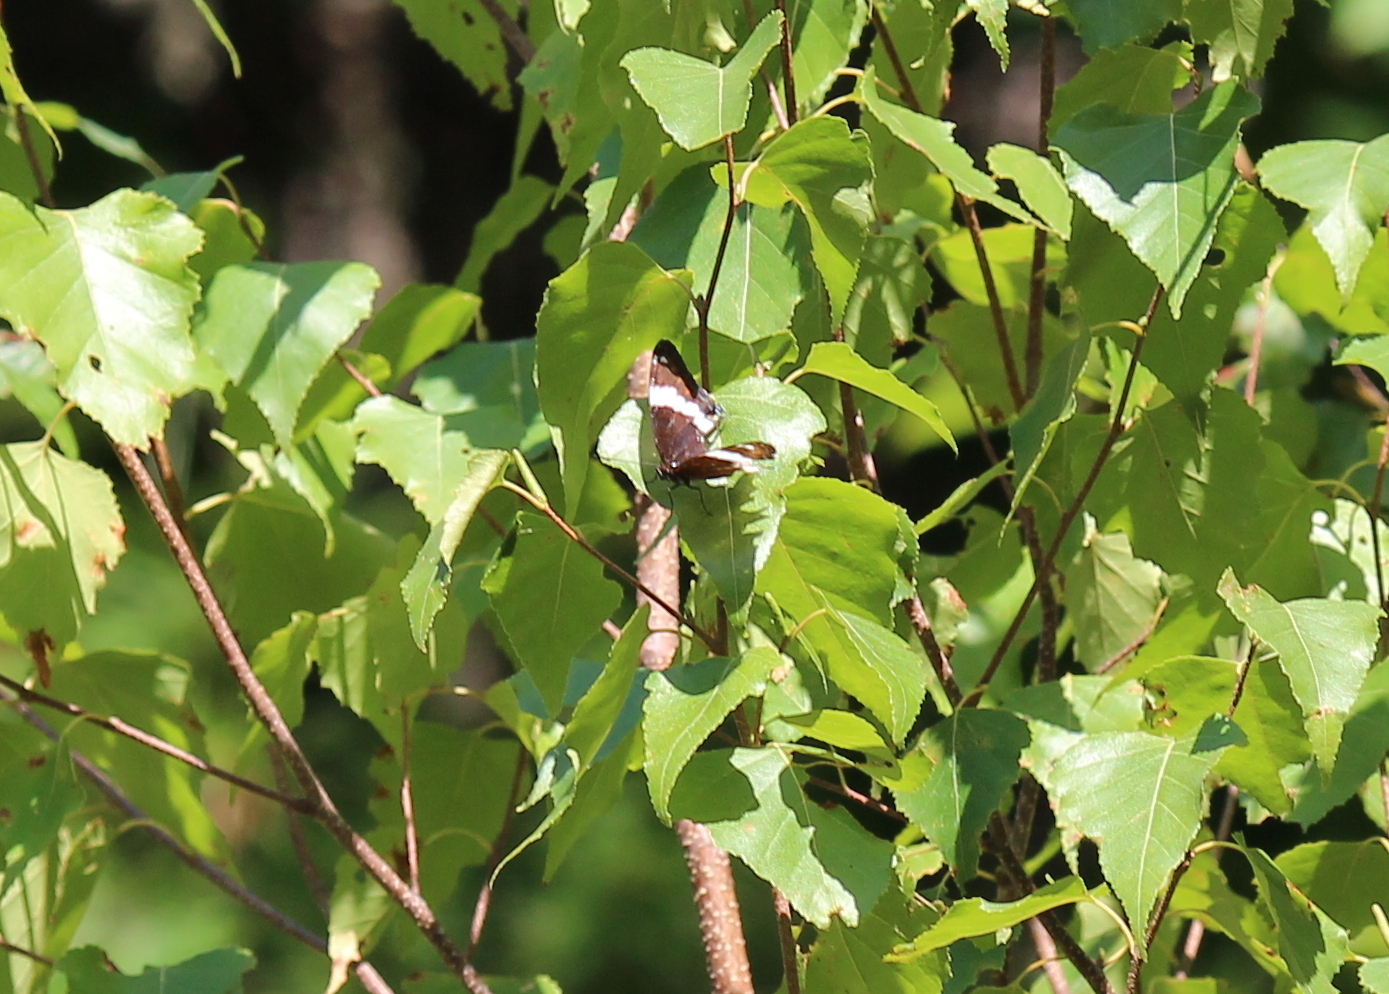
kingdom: Animalia
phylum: Arthropoda
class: Insecta
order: Lepidoptera
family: Nymphalidae
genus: Limenitis
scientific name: Limenitis arthemis
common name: Red-spotted admiral
